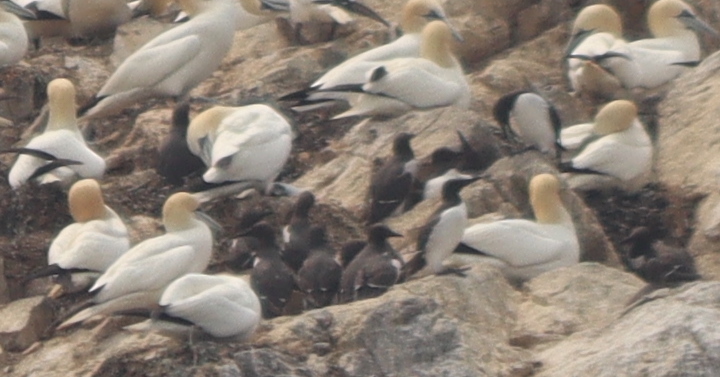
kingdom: Animalia
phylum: Chordata
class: Aves
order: Charadriiformes
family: Alcidae
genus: Uria
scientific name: Uria aalge
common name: Common murre
